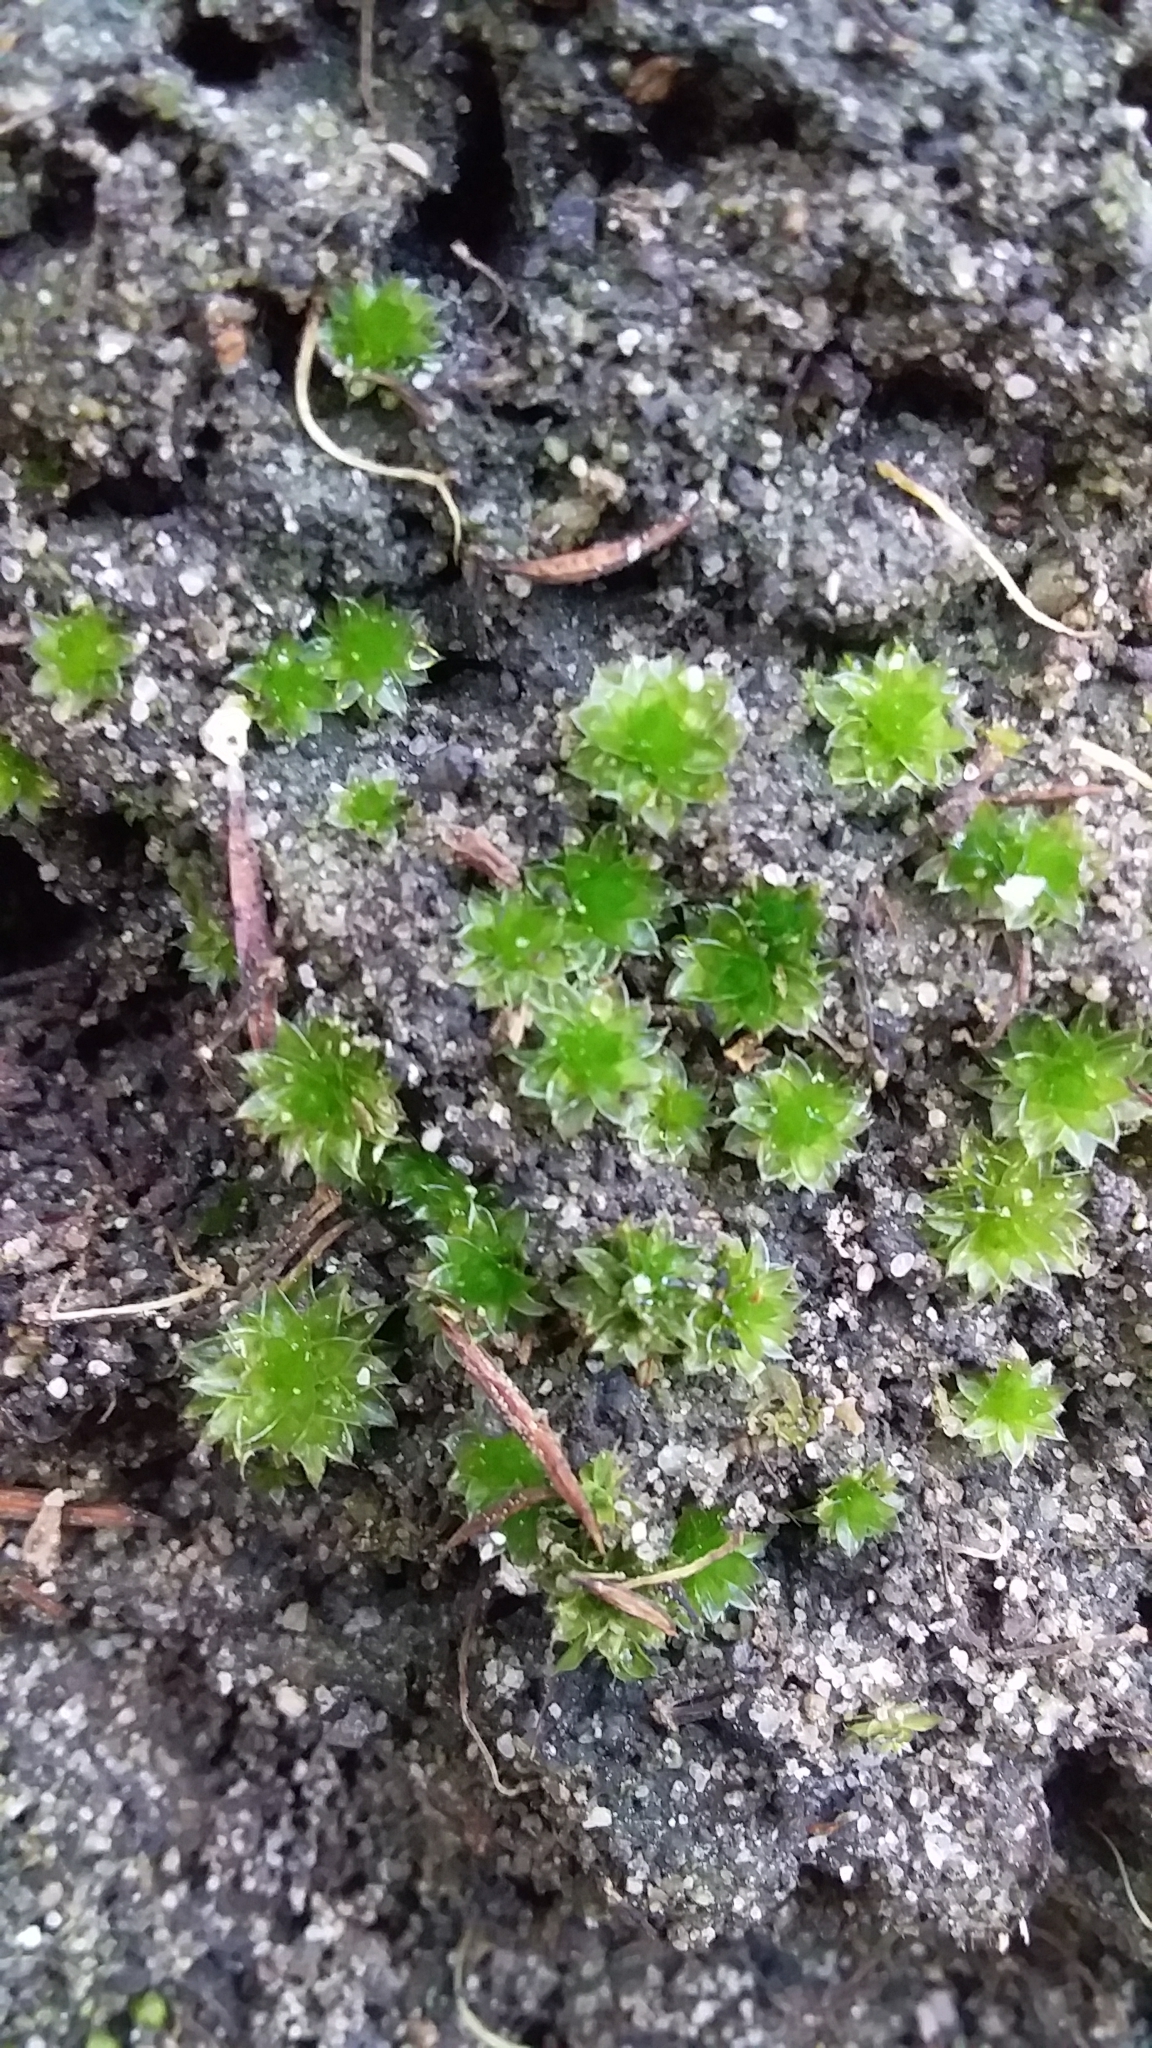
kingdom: Plantae
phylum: Bryophyta
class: Bryopsida
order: Bryales
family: Bryaceae
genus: Rosulabryum
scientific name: Rosulabryum billardierei
